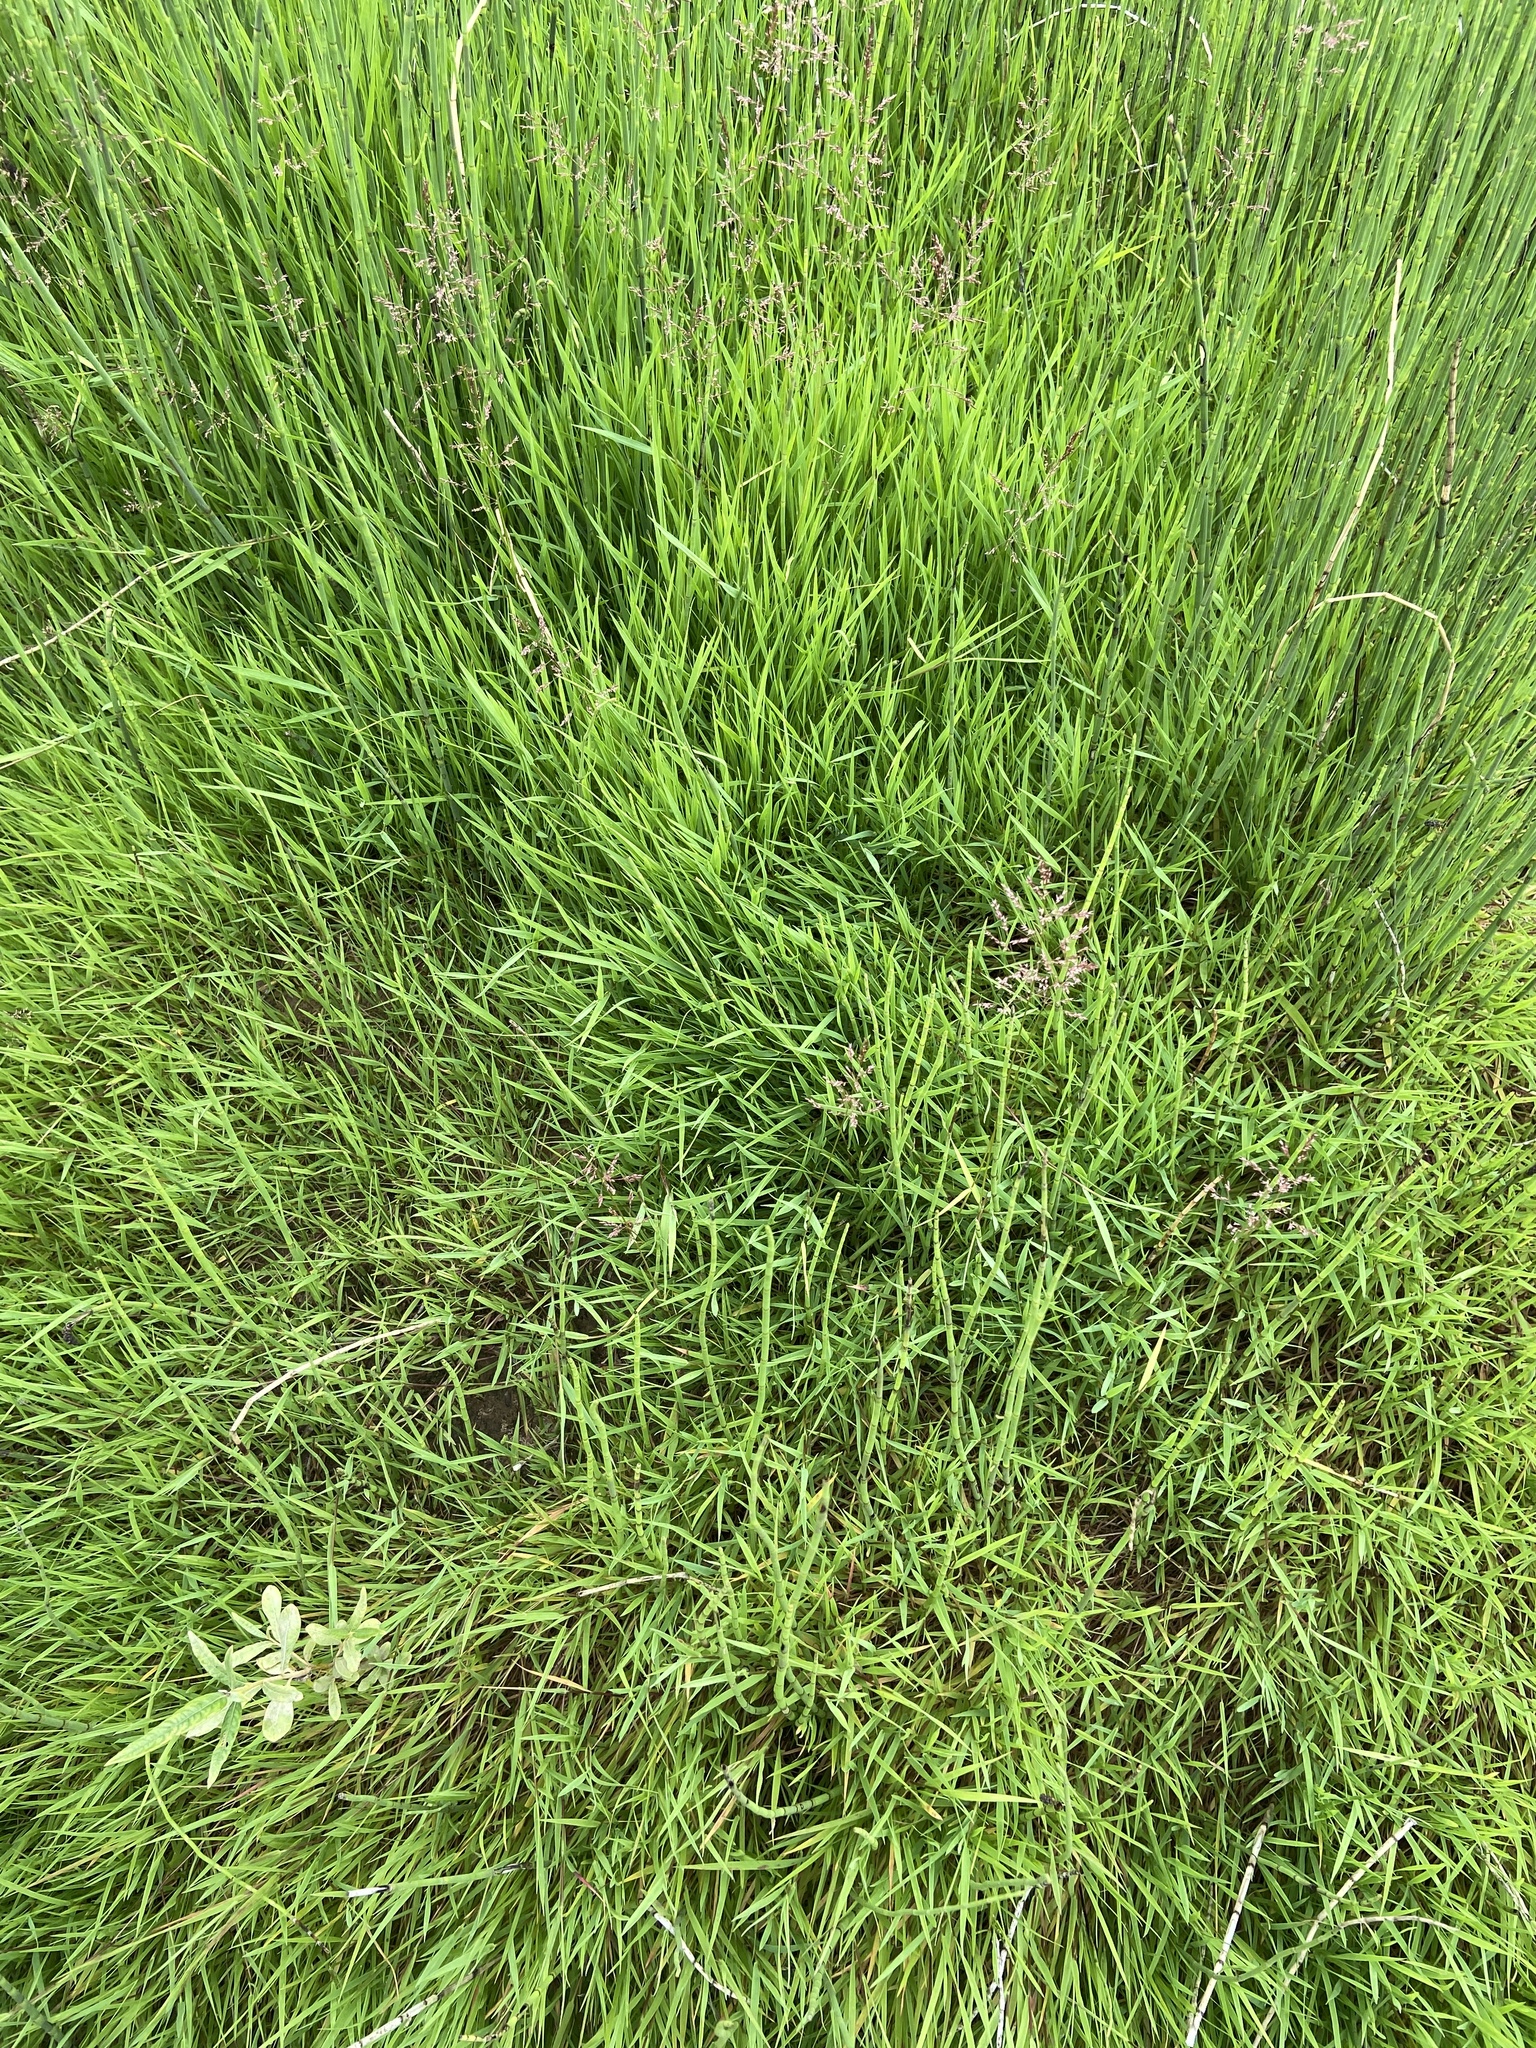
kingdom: Plantae
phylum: Tracheophyta
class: Liliopsida
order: Poales
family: Poaceae
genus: Agrostis
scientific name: Agrostis stolonifera
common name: Creeping bentgrass
